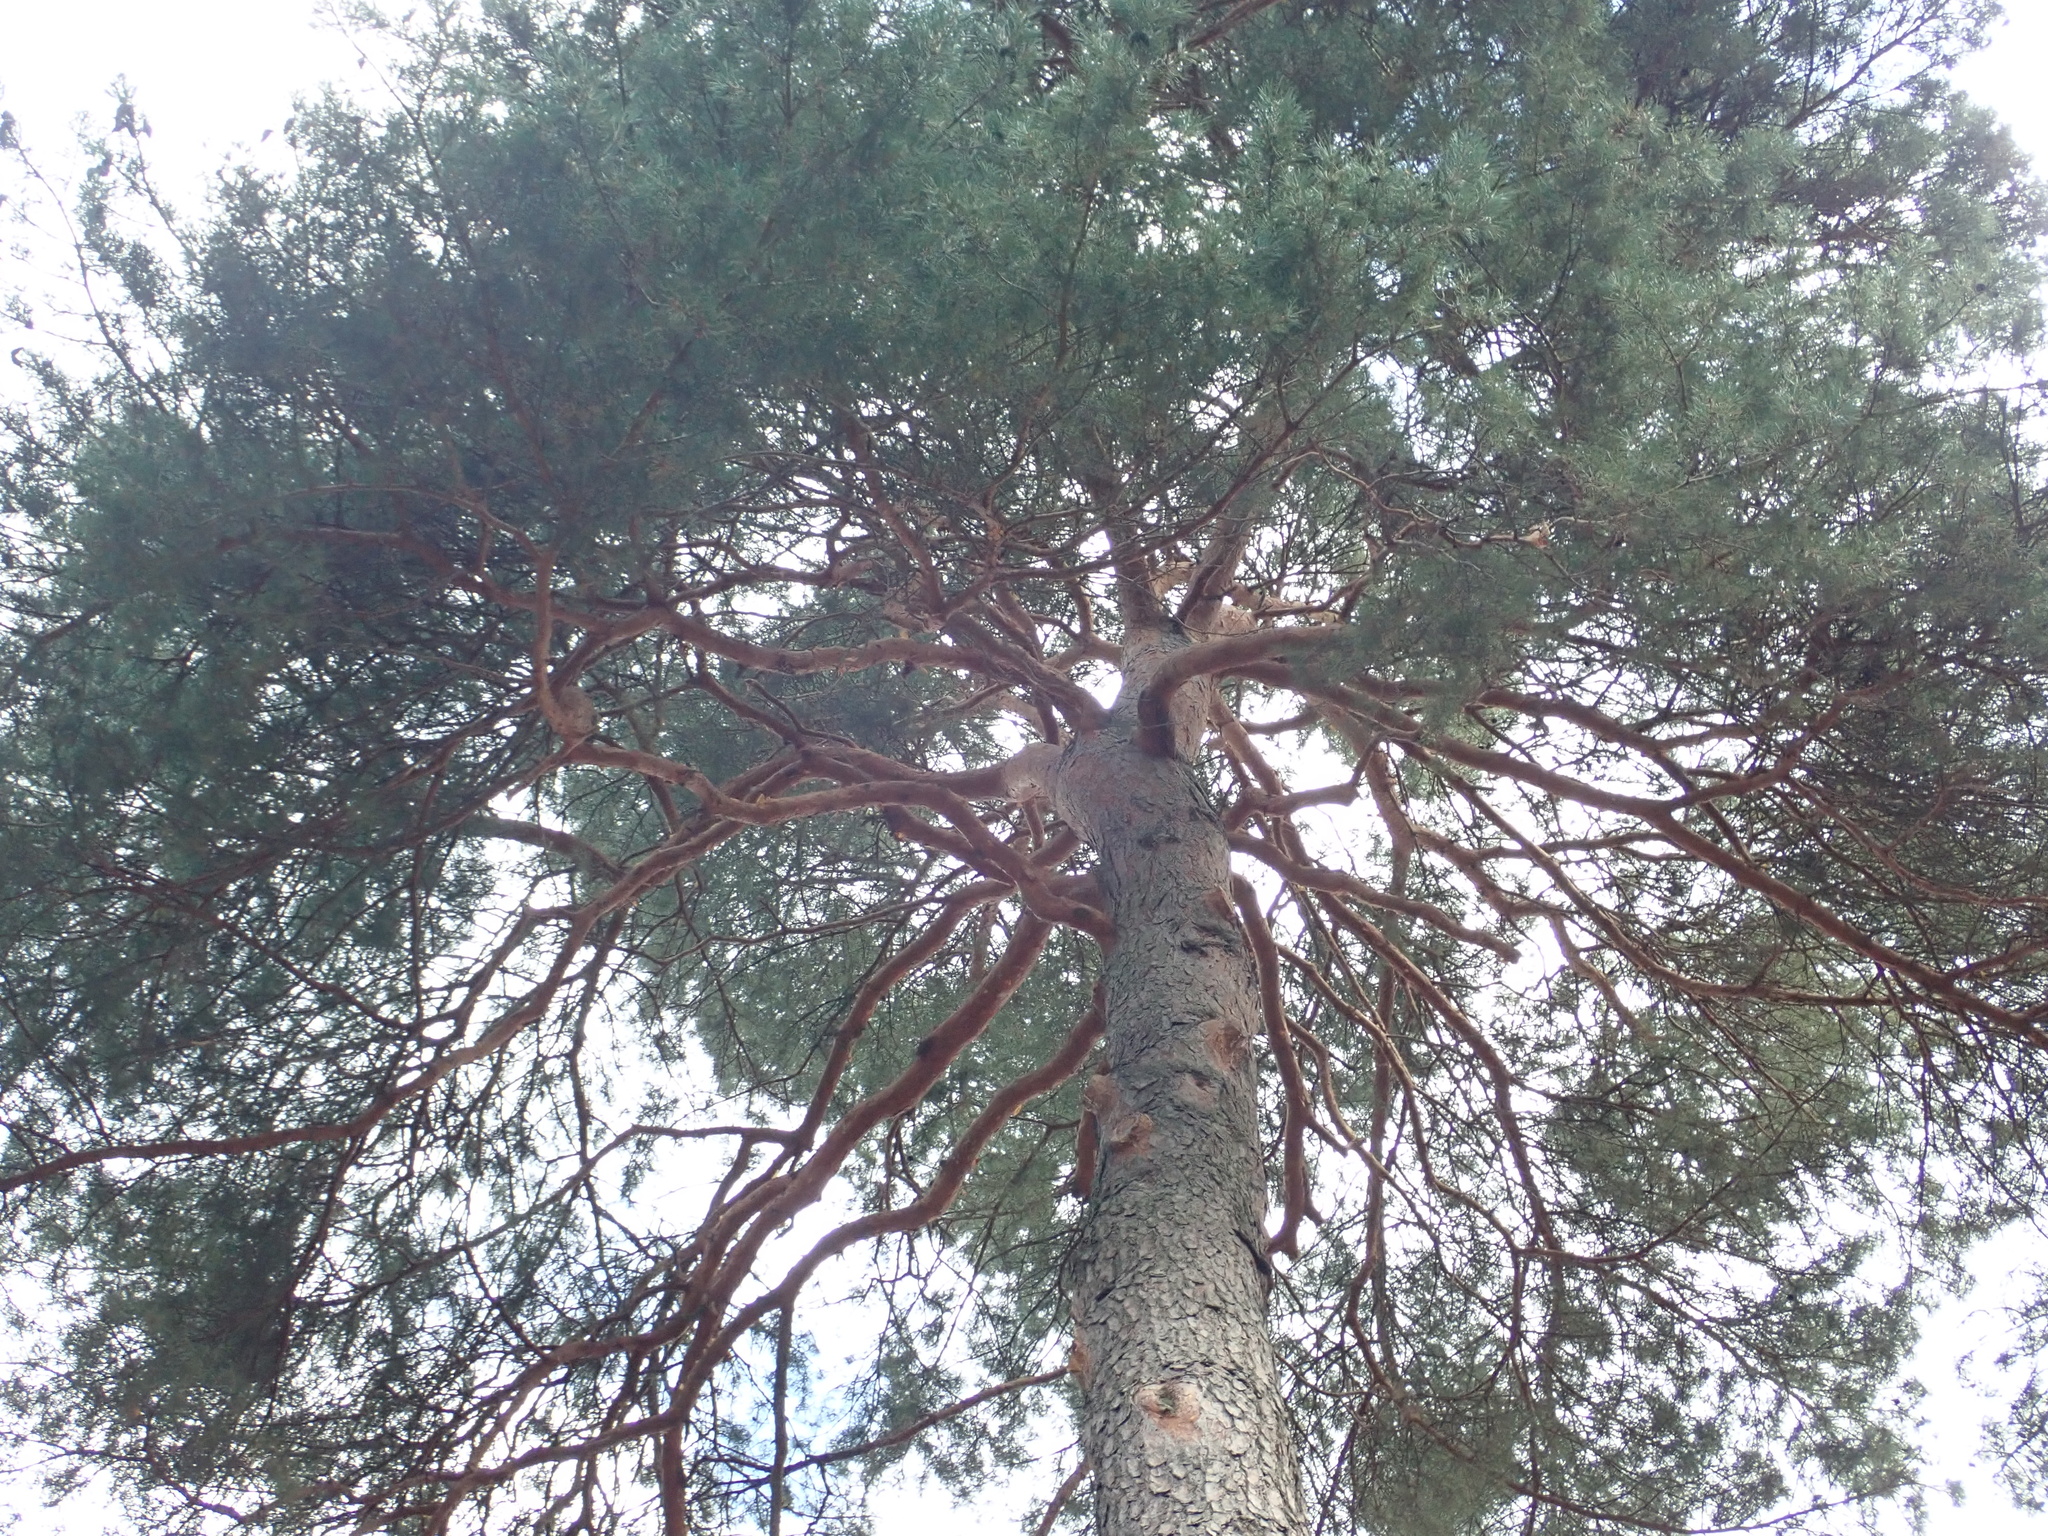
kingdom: Plantae
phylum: Tracheophyta
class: Pinopsida
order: Pinales
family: Pinaceae
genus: Pinus
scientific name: Pinus sylvestris
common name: Scots pine
